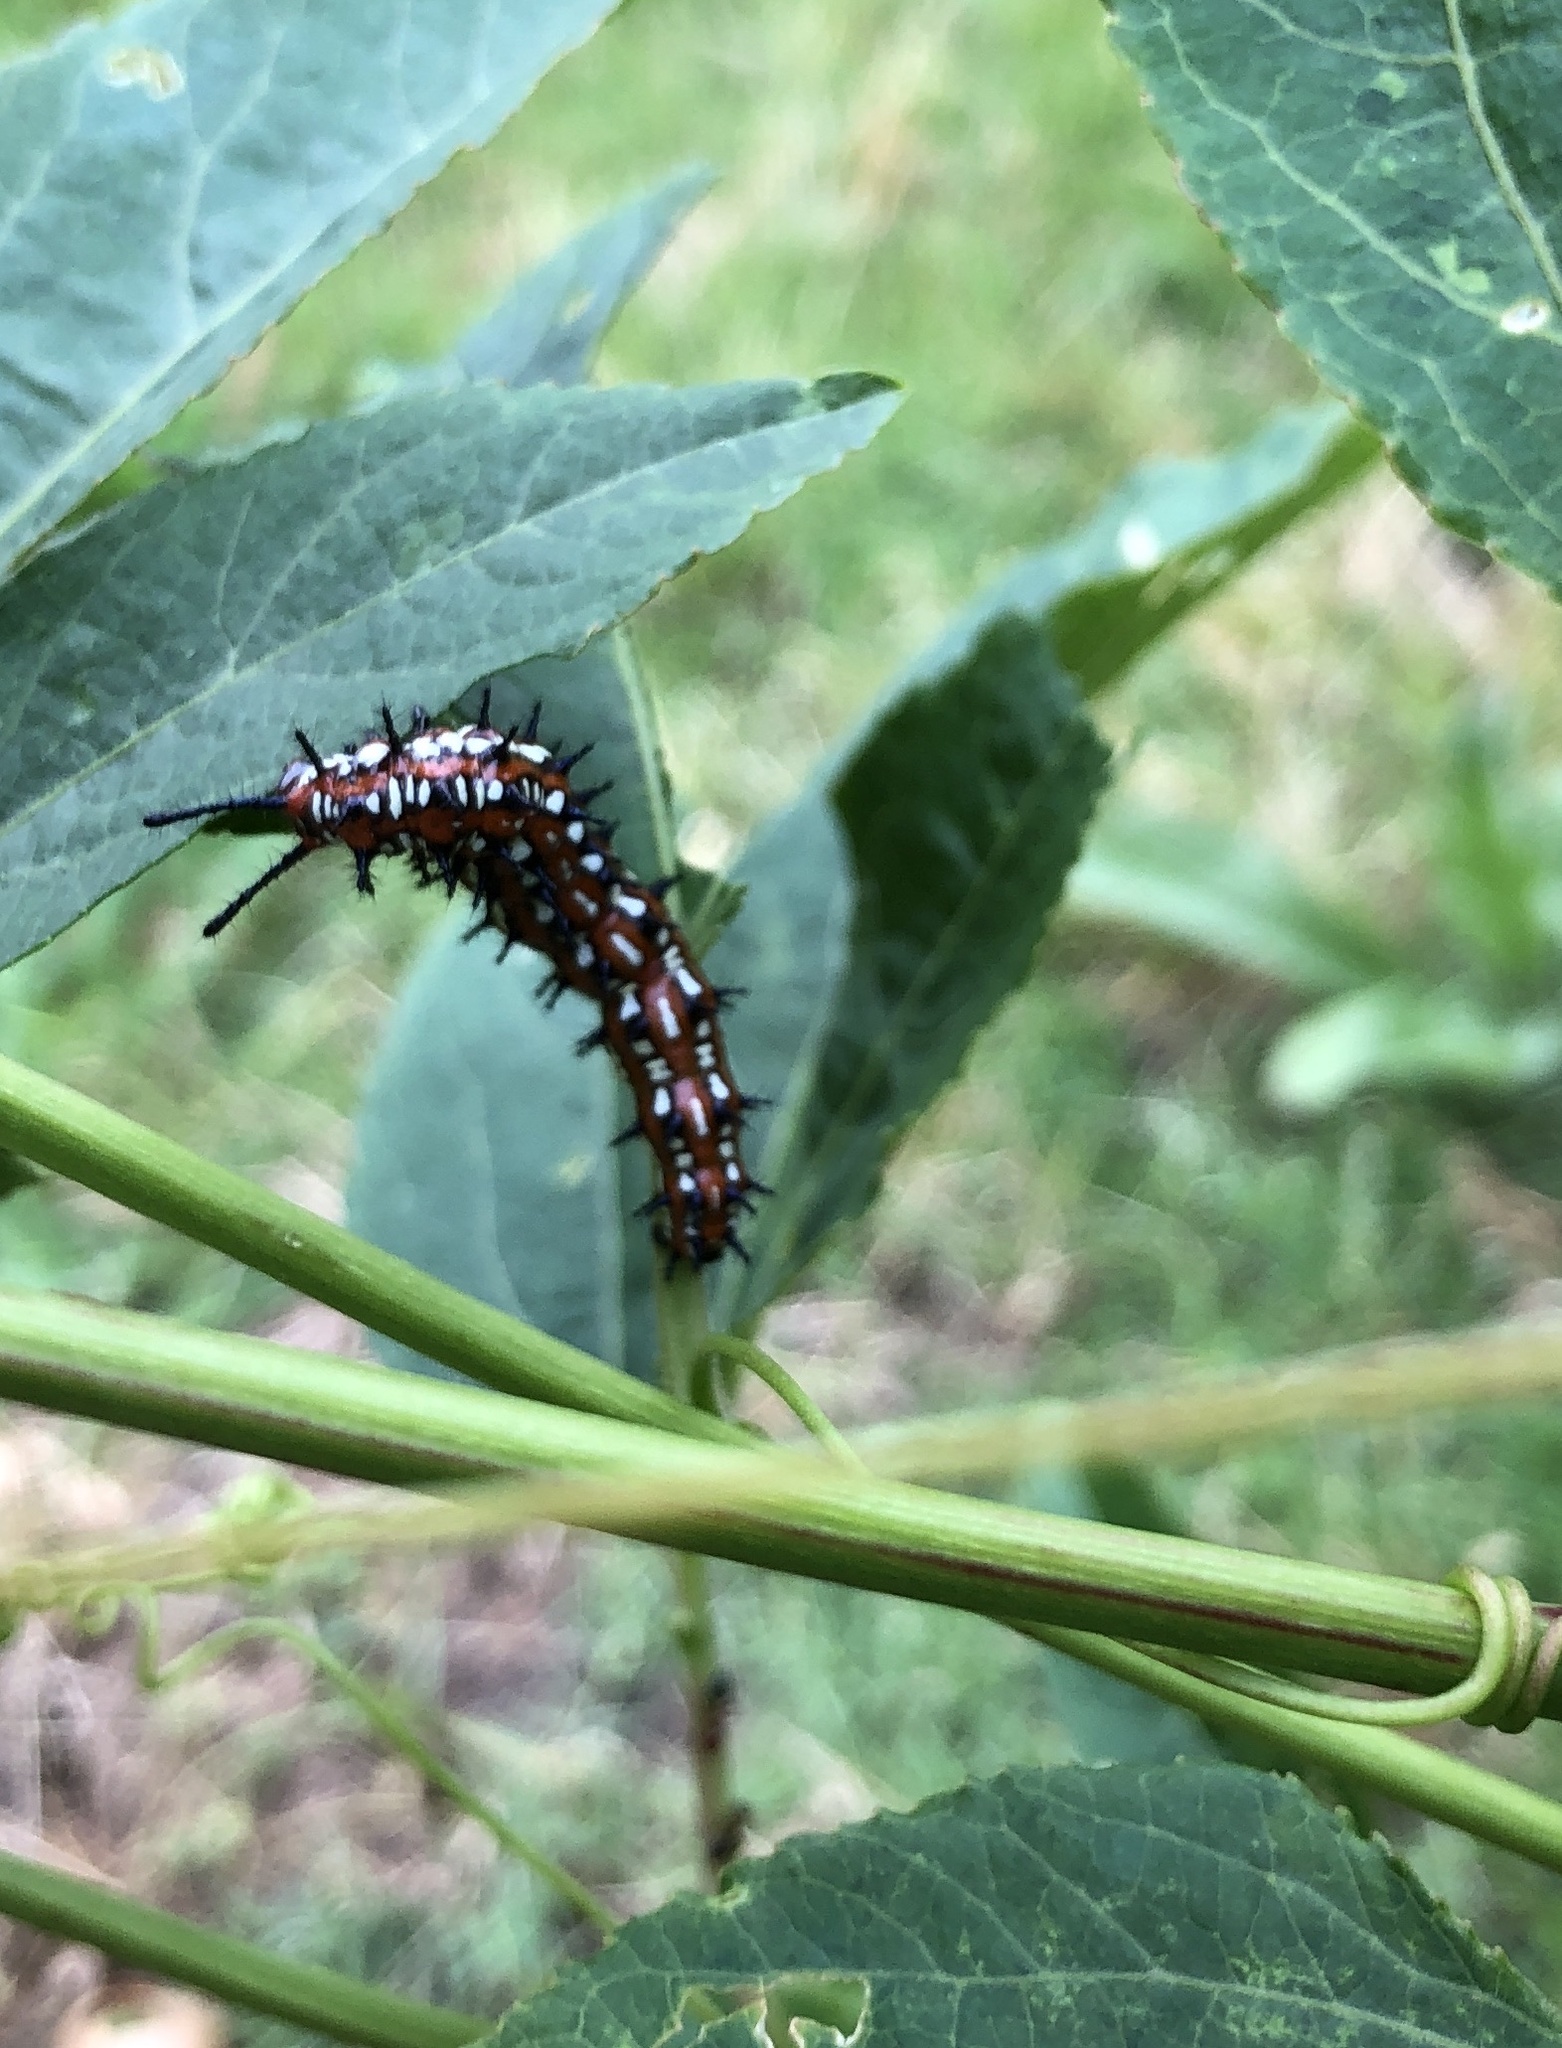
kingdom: Animalia
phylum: Arthropoda
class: Insecta
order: Lepidoptera
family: Nymphalidae
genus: Euptoieta
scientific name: Euptoieta claudia
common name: Variegated fritillary
